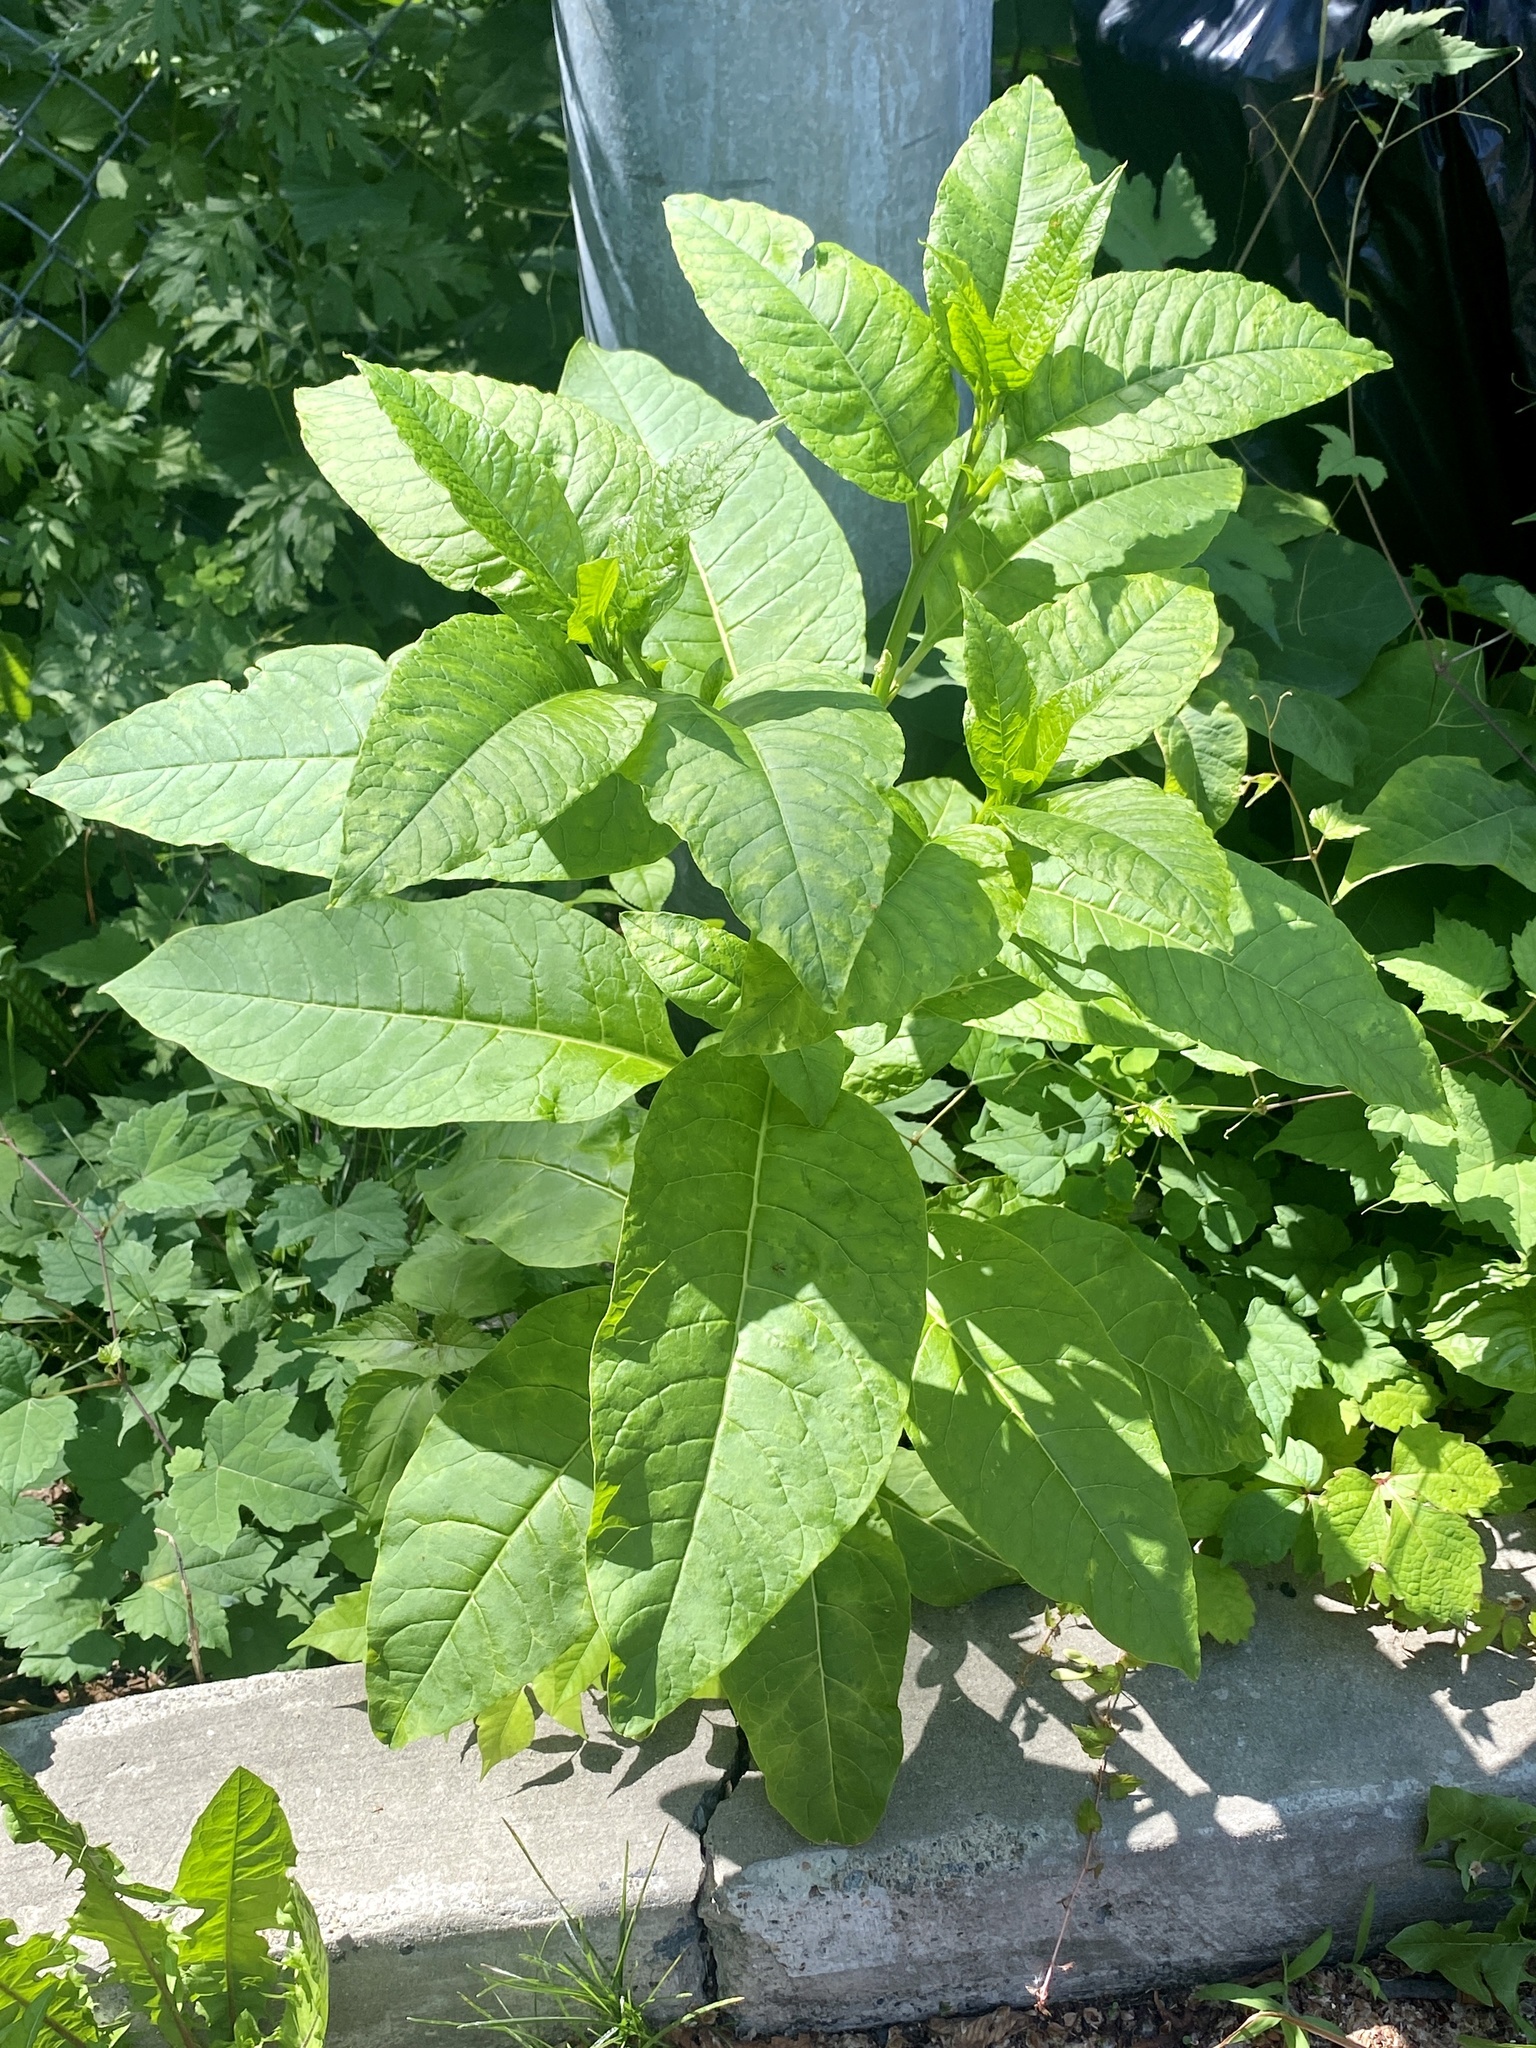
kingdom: Plantae
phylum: Tracheophyta
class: Magnoliopsida
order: Caryophyllales
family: Phytolaccaceae
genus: Phytolacca
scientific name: Phytolacca americana
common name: American pokeweed
